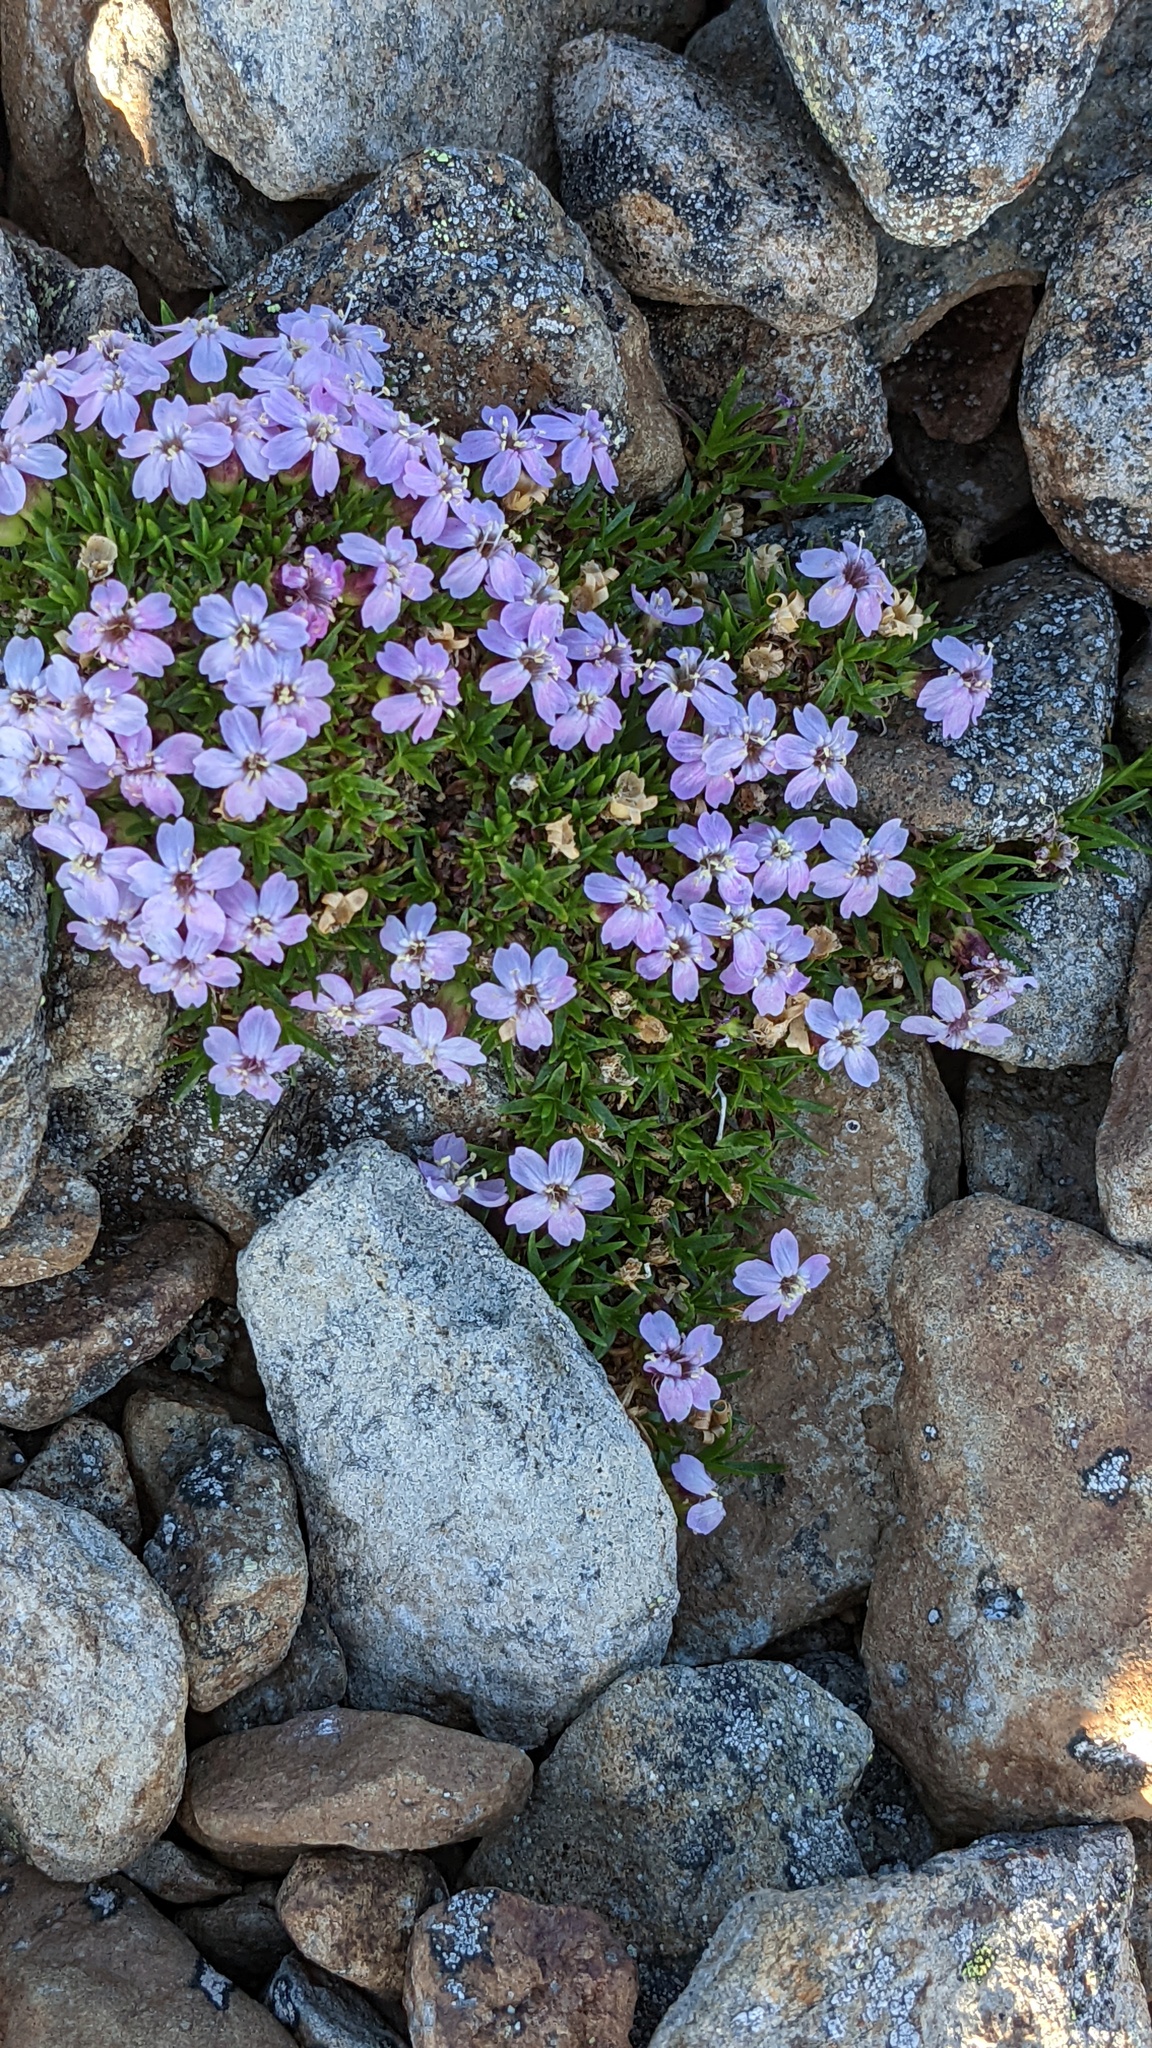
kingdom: Plantae
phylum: Tracheophyta
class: Magnoliopsida
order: Caryophyllales
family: Caryophyllaceae
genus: Silene
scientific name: Silene acaulis
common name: Moss campion
